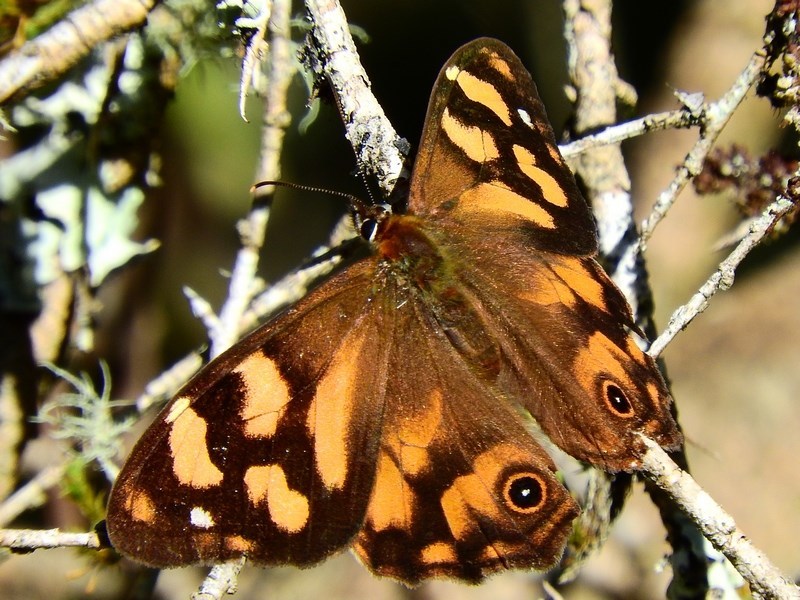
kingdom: Animalia
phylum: Arthropoda
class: Insecta
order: Lepidoptera
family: Nymphalidae
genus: Heteronympha
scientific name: Heteronympha banksii
